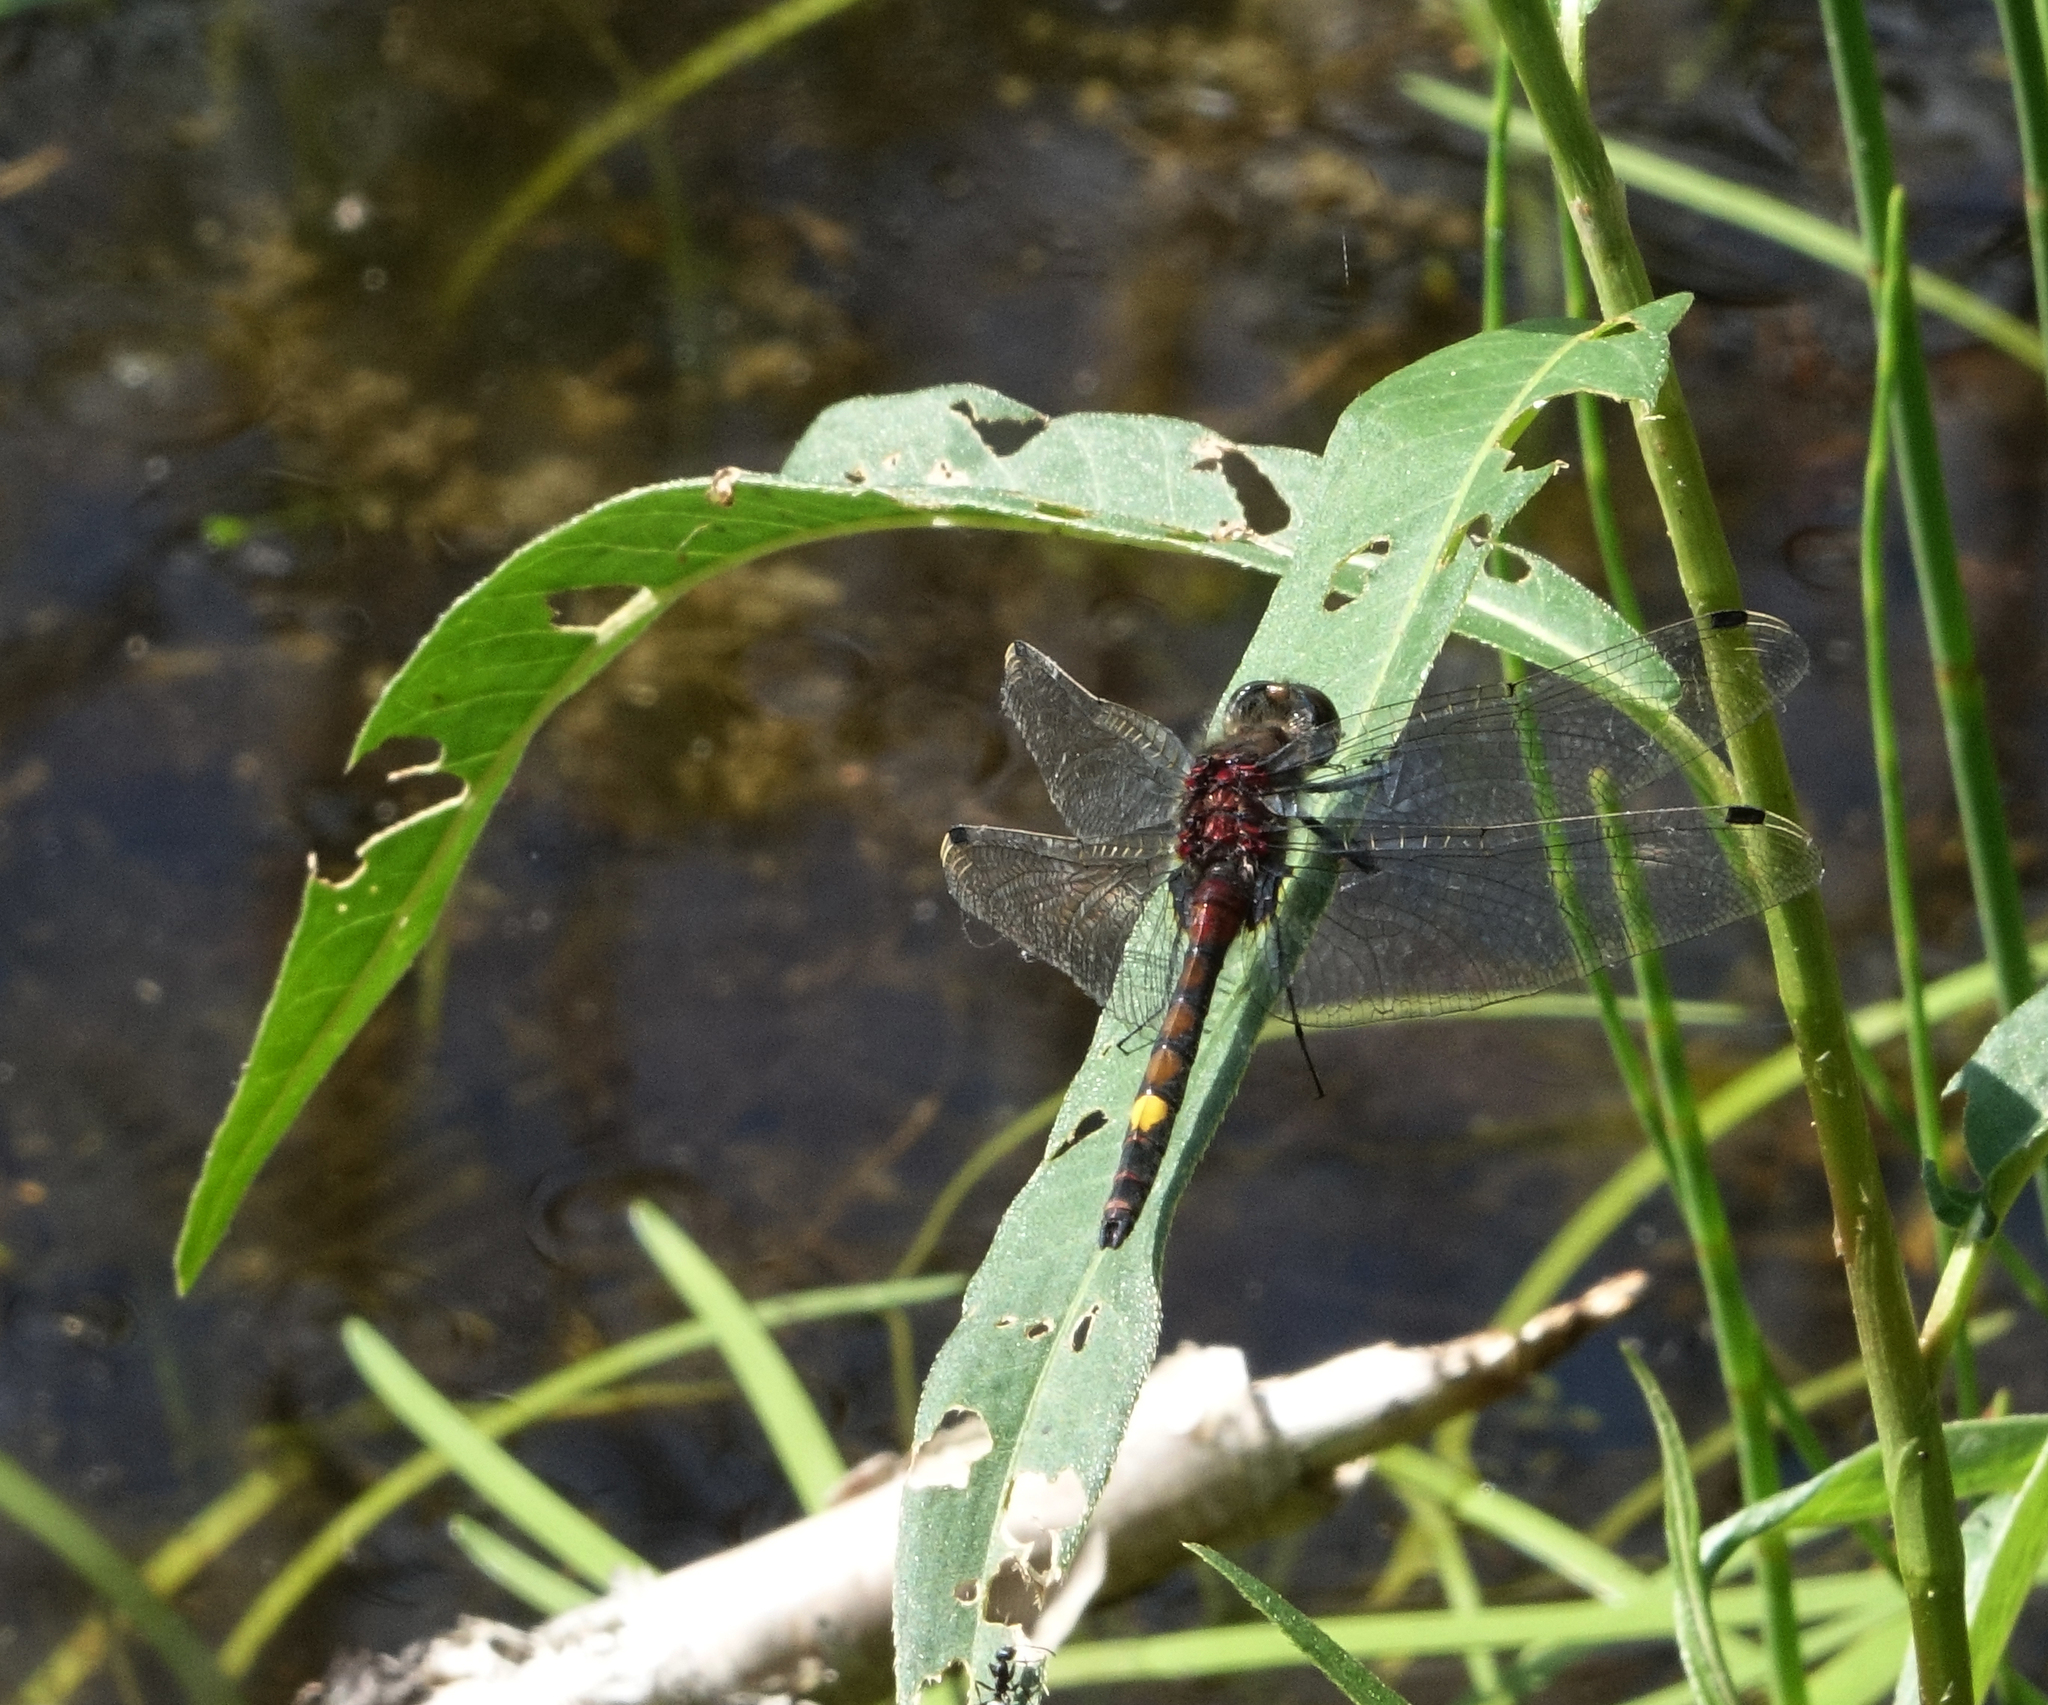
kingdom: Animalia
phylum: Arthropoda
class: Insecta
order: Odonata
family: Libellulidae
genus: Leucorrhinia
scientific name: Leucorrhinia pectoralis
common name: Yellow-spotted whiteface
